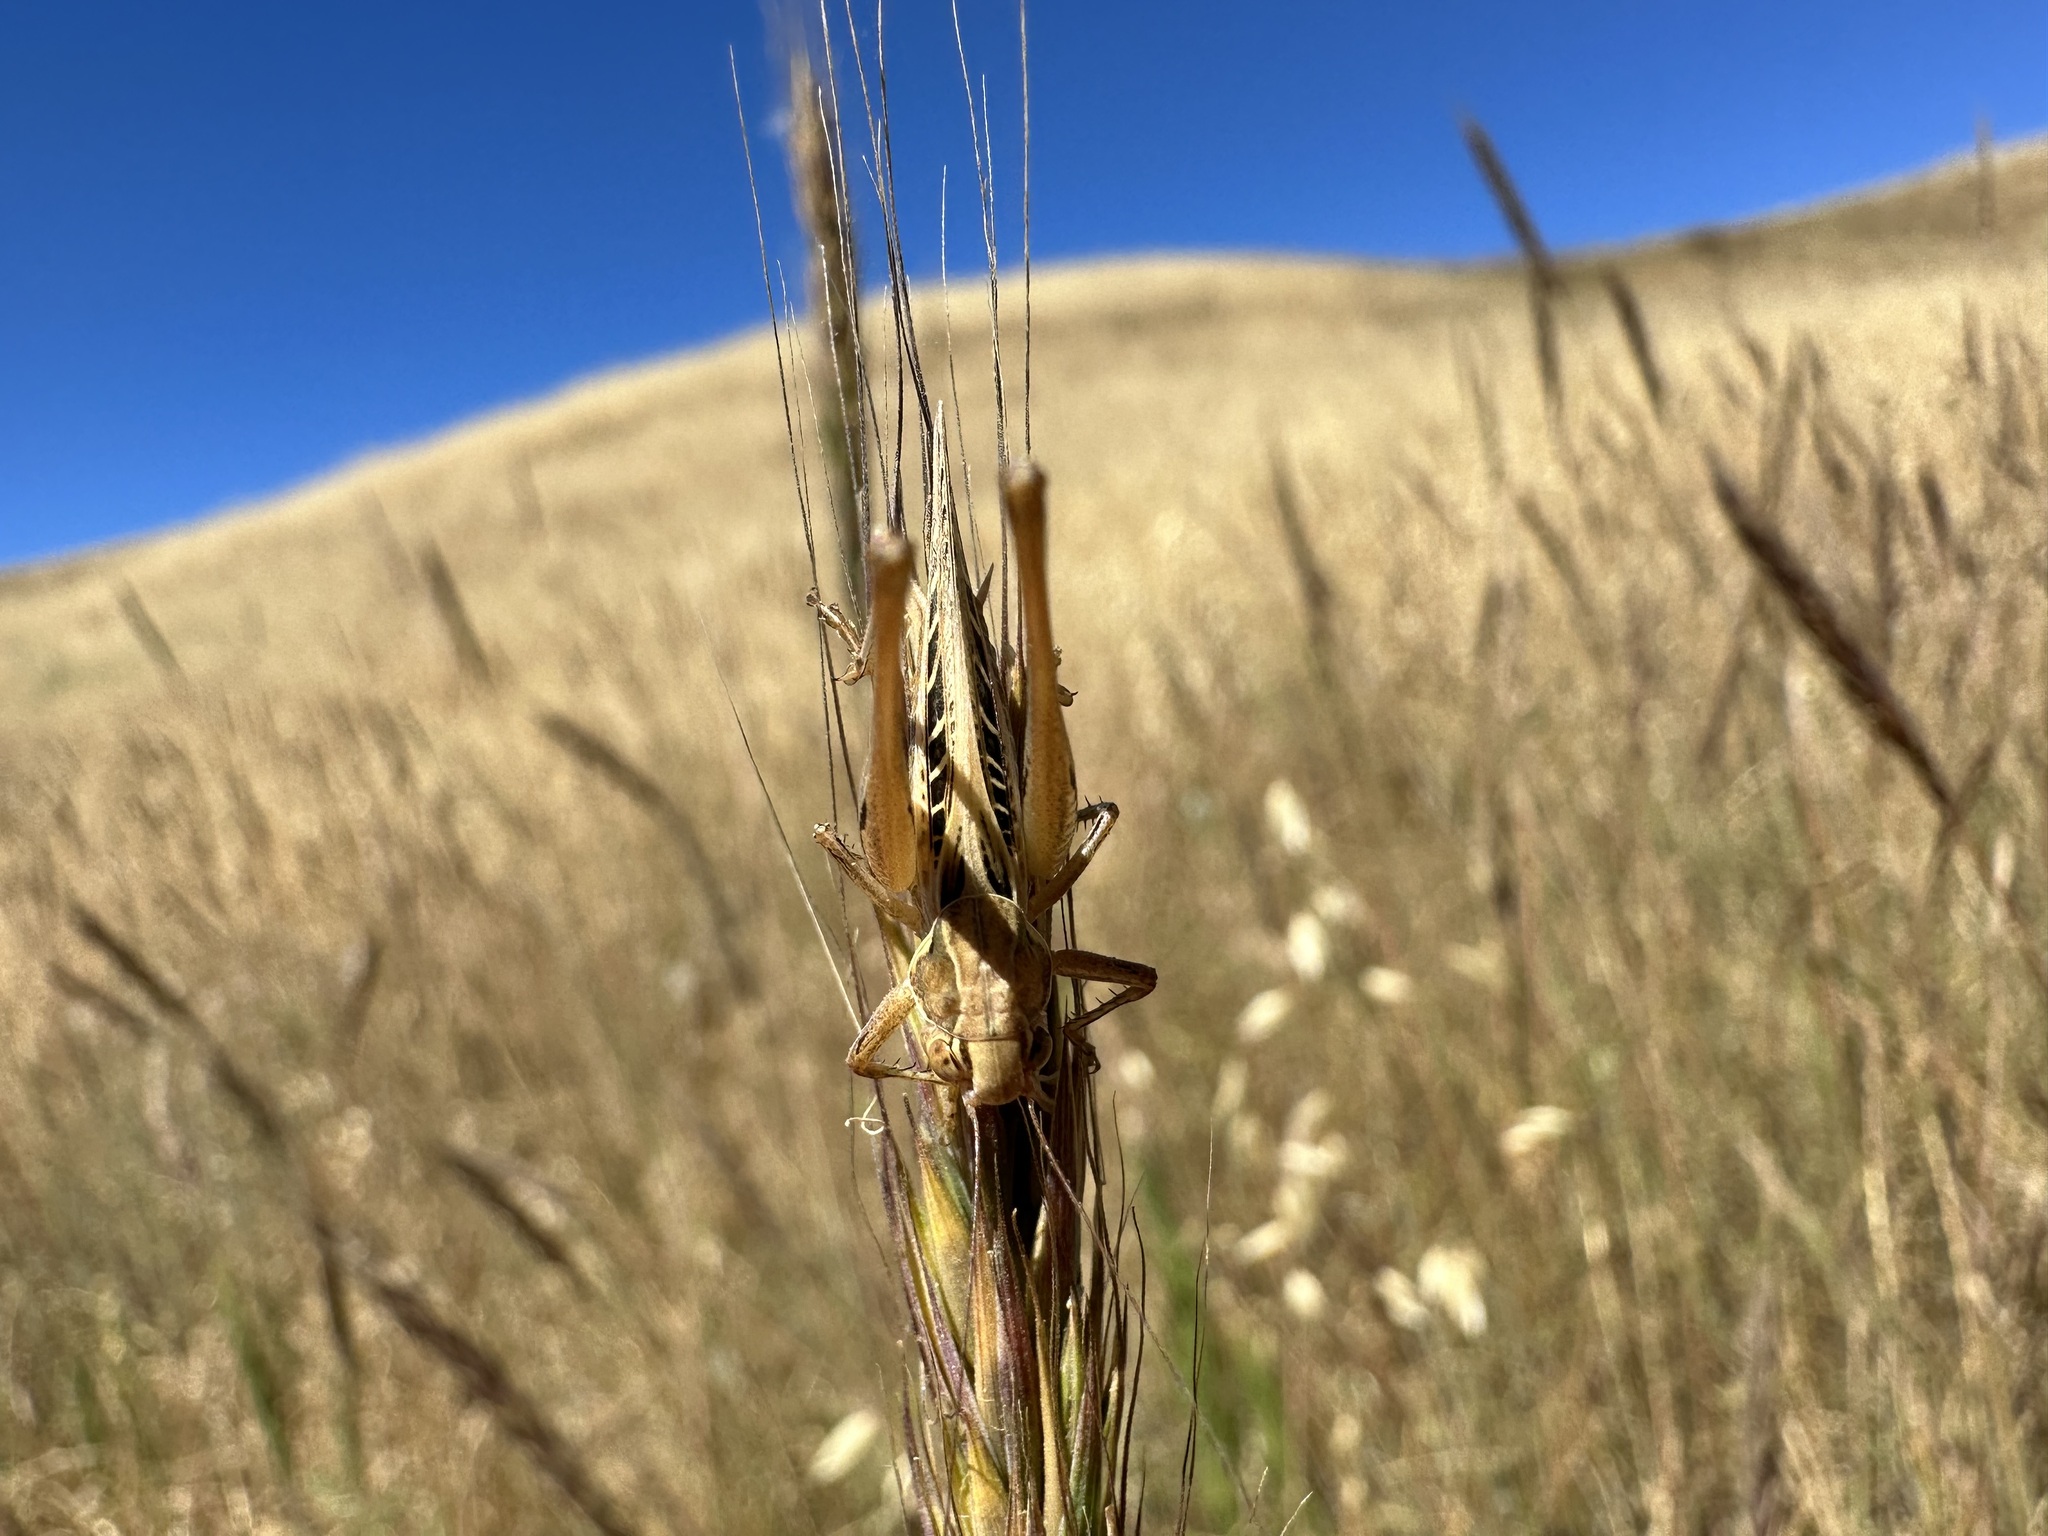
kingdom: Animalia
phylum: Arthropoda
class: Insecta
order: Orthoptera
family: Tettigoniidae
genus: Tessellana
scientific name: Tessellana tessellata
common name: Grasshopper
